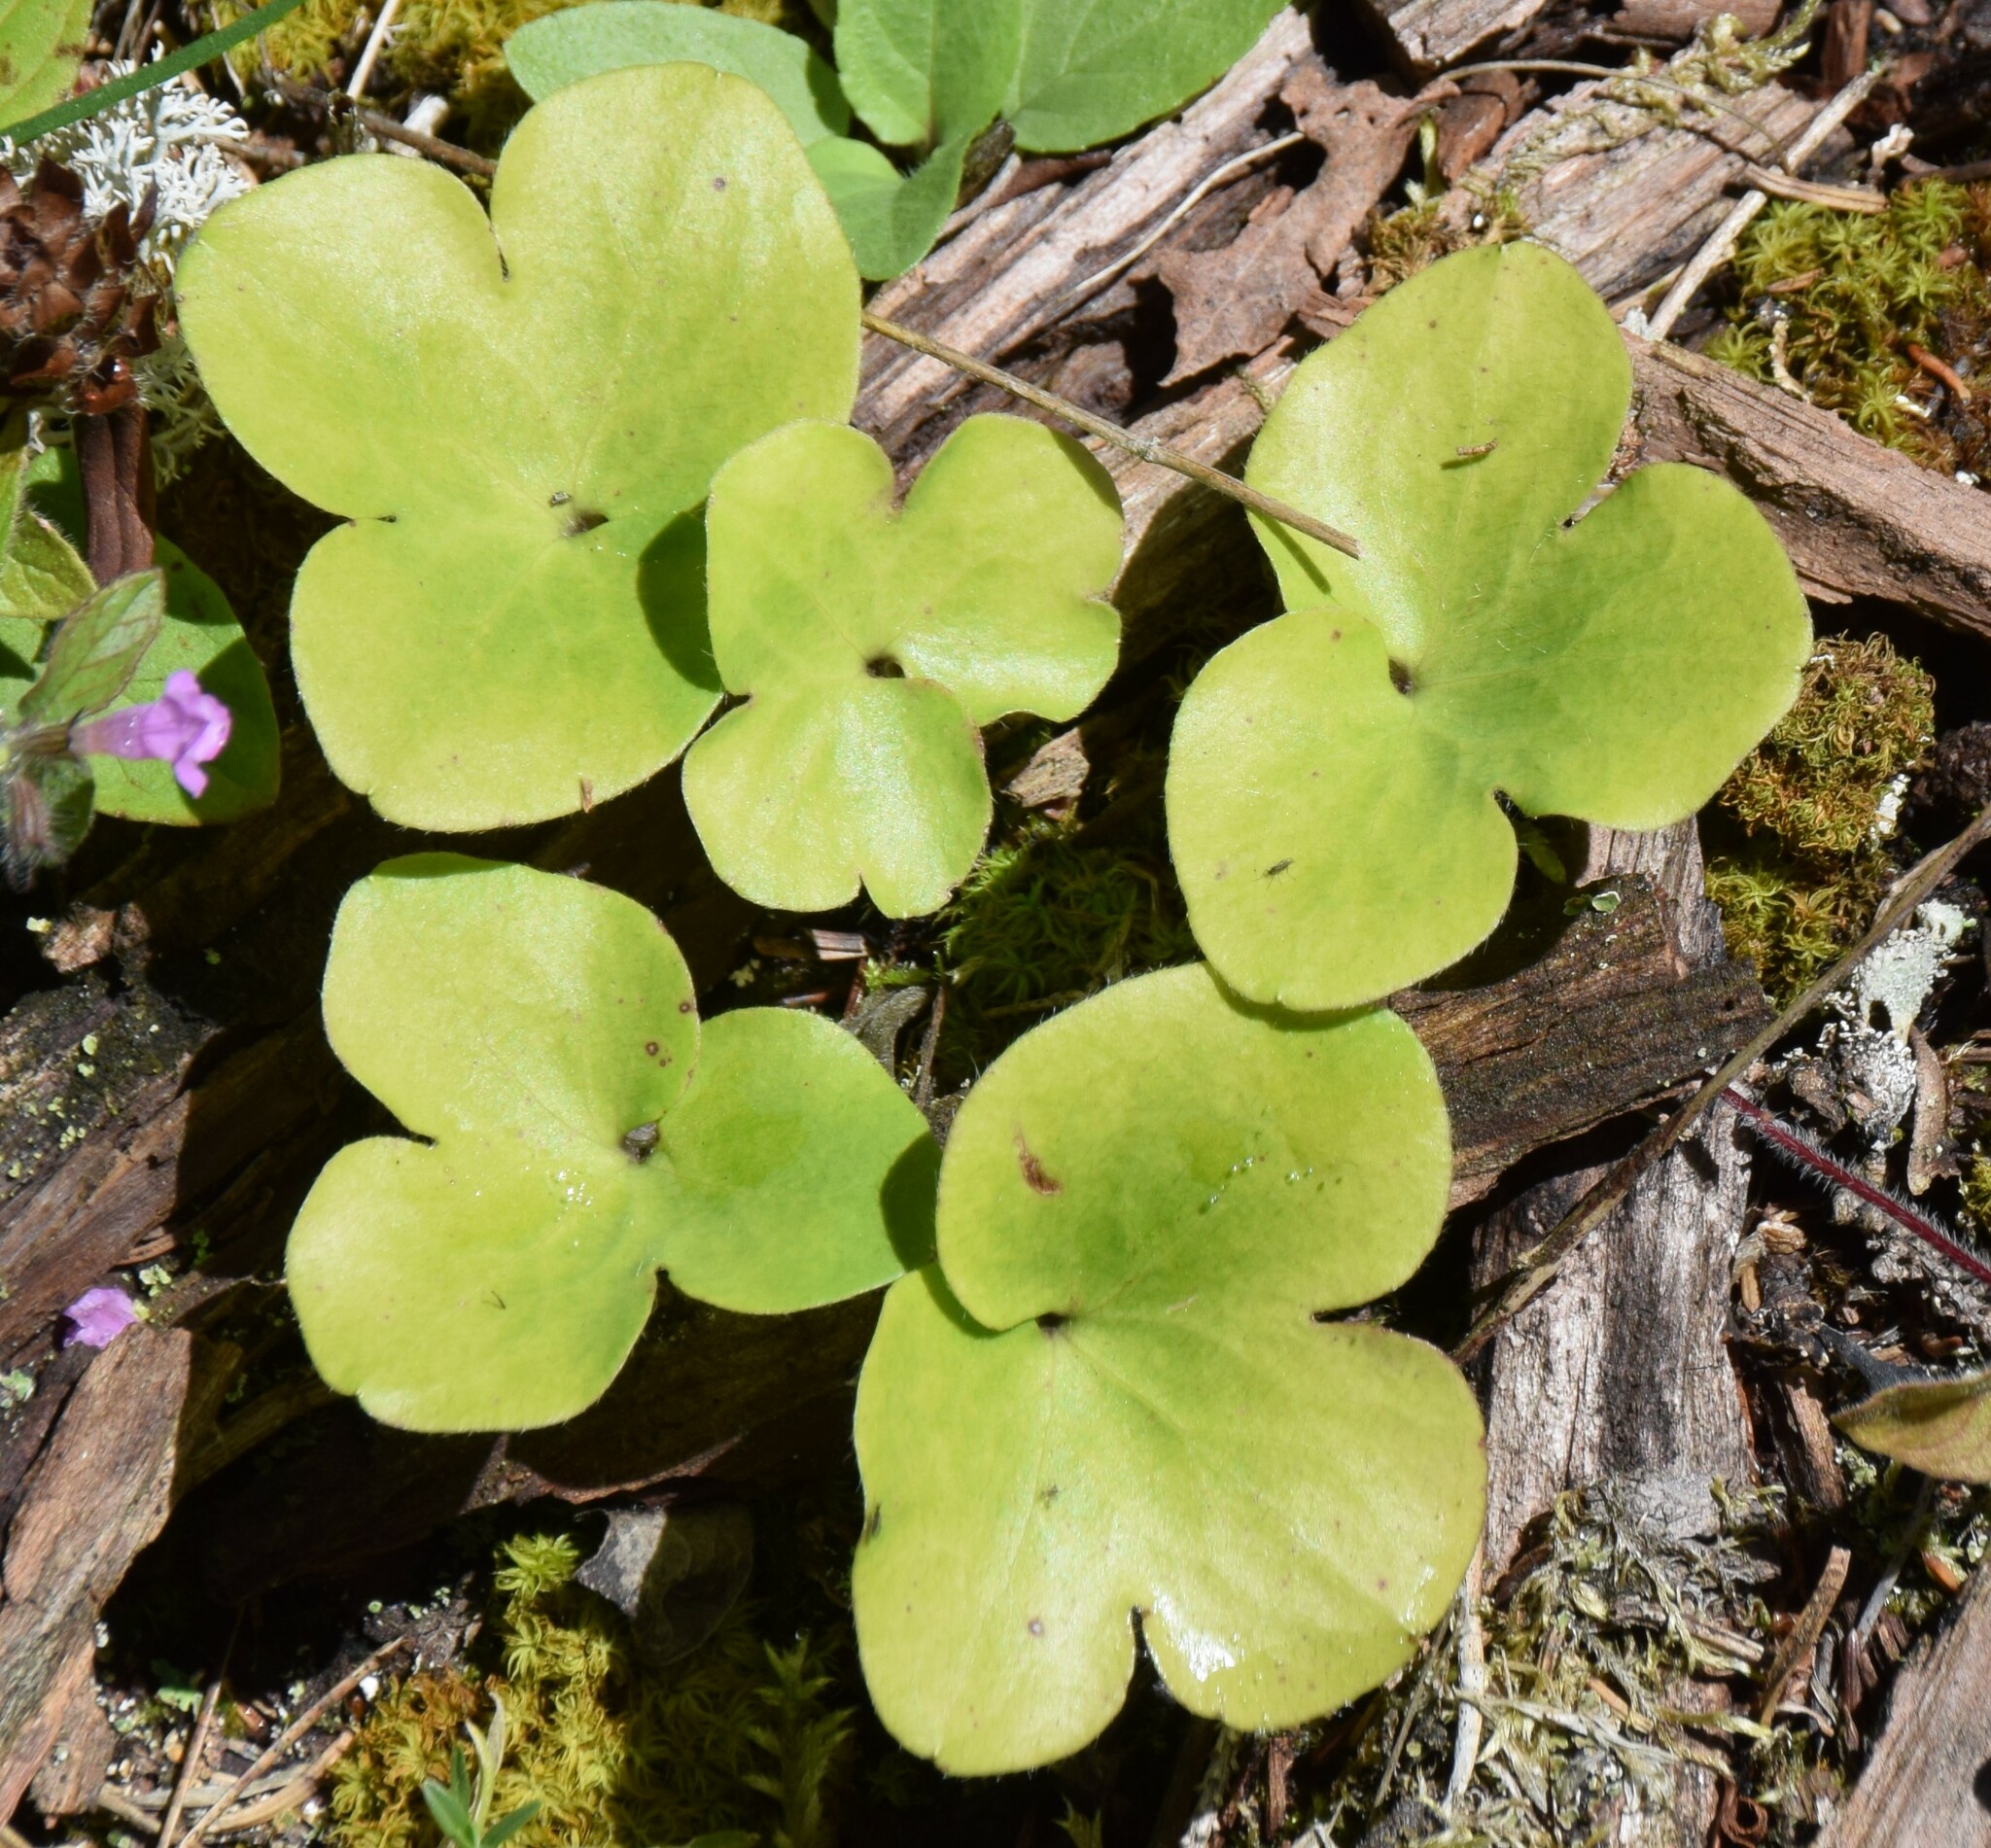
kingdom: Plantae
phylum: Tracheophyta
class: Magnoliopsida
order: Ranunculales
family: Ranunculaceae
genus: Hepatica
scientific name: Hepatica americana
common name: American hepatica
